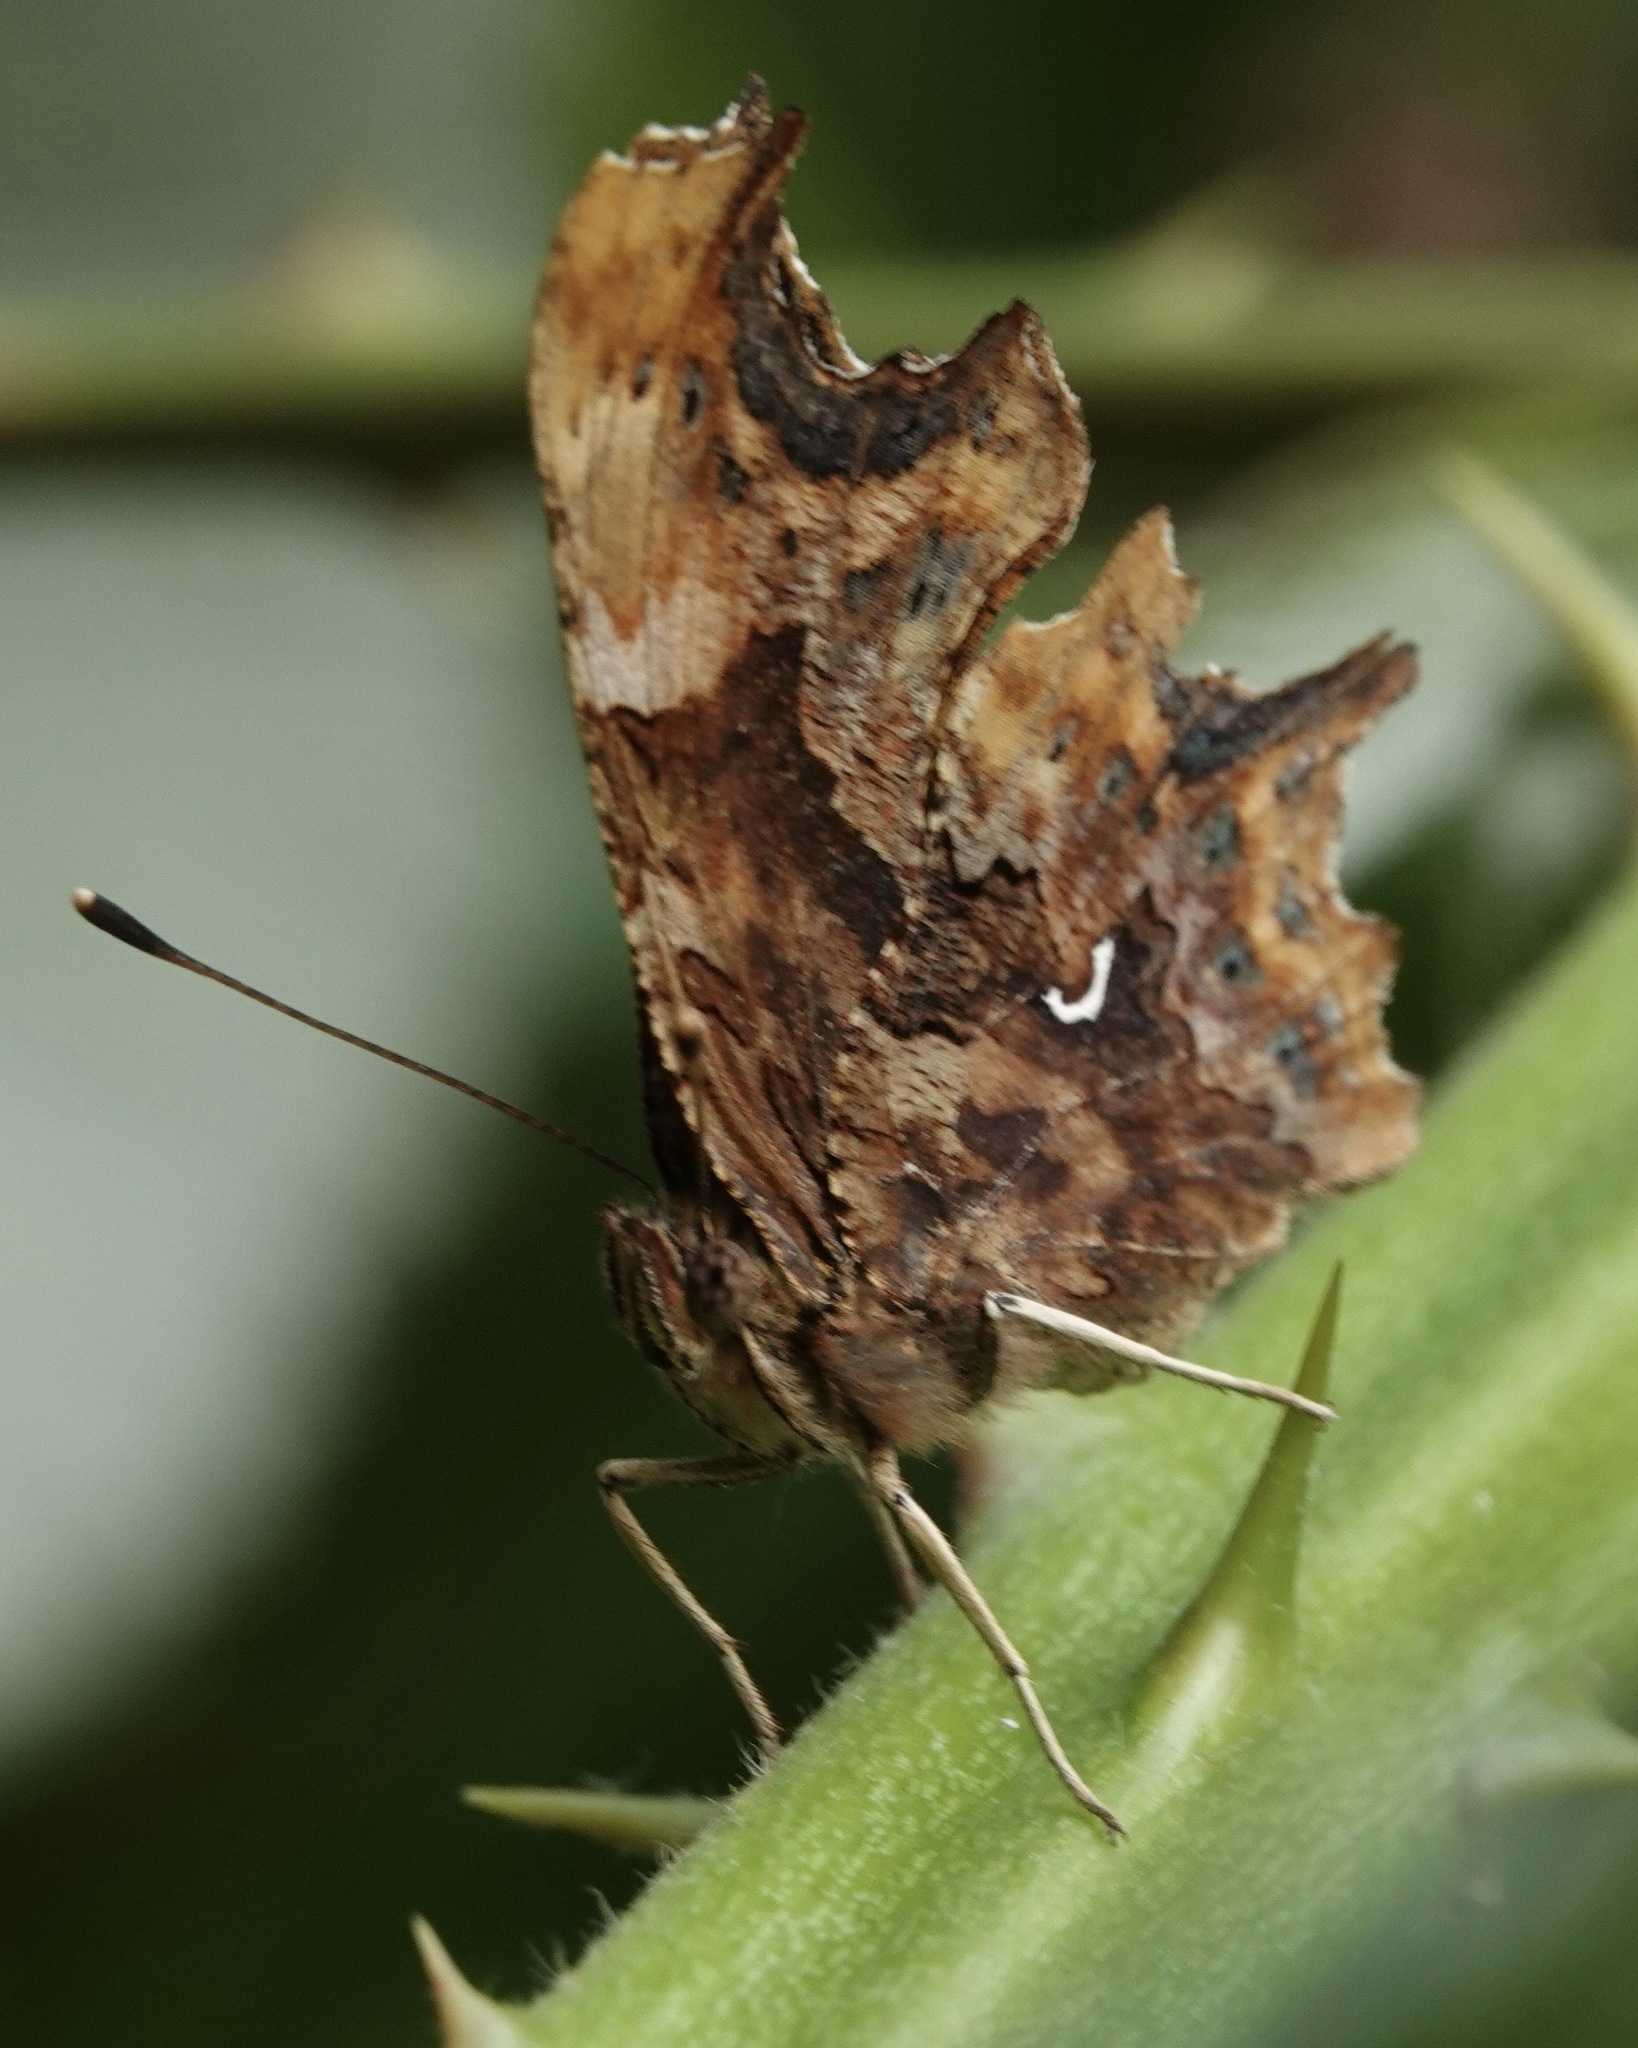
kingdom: Animalia
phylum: Arthropoda
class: Insecta
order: Lepidoptera
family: Nymphalidae
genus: Polygonia
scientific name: Polygonia c-album
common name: Comma
